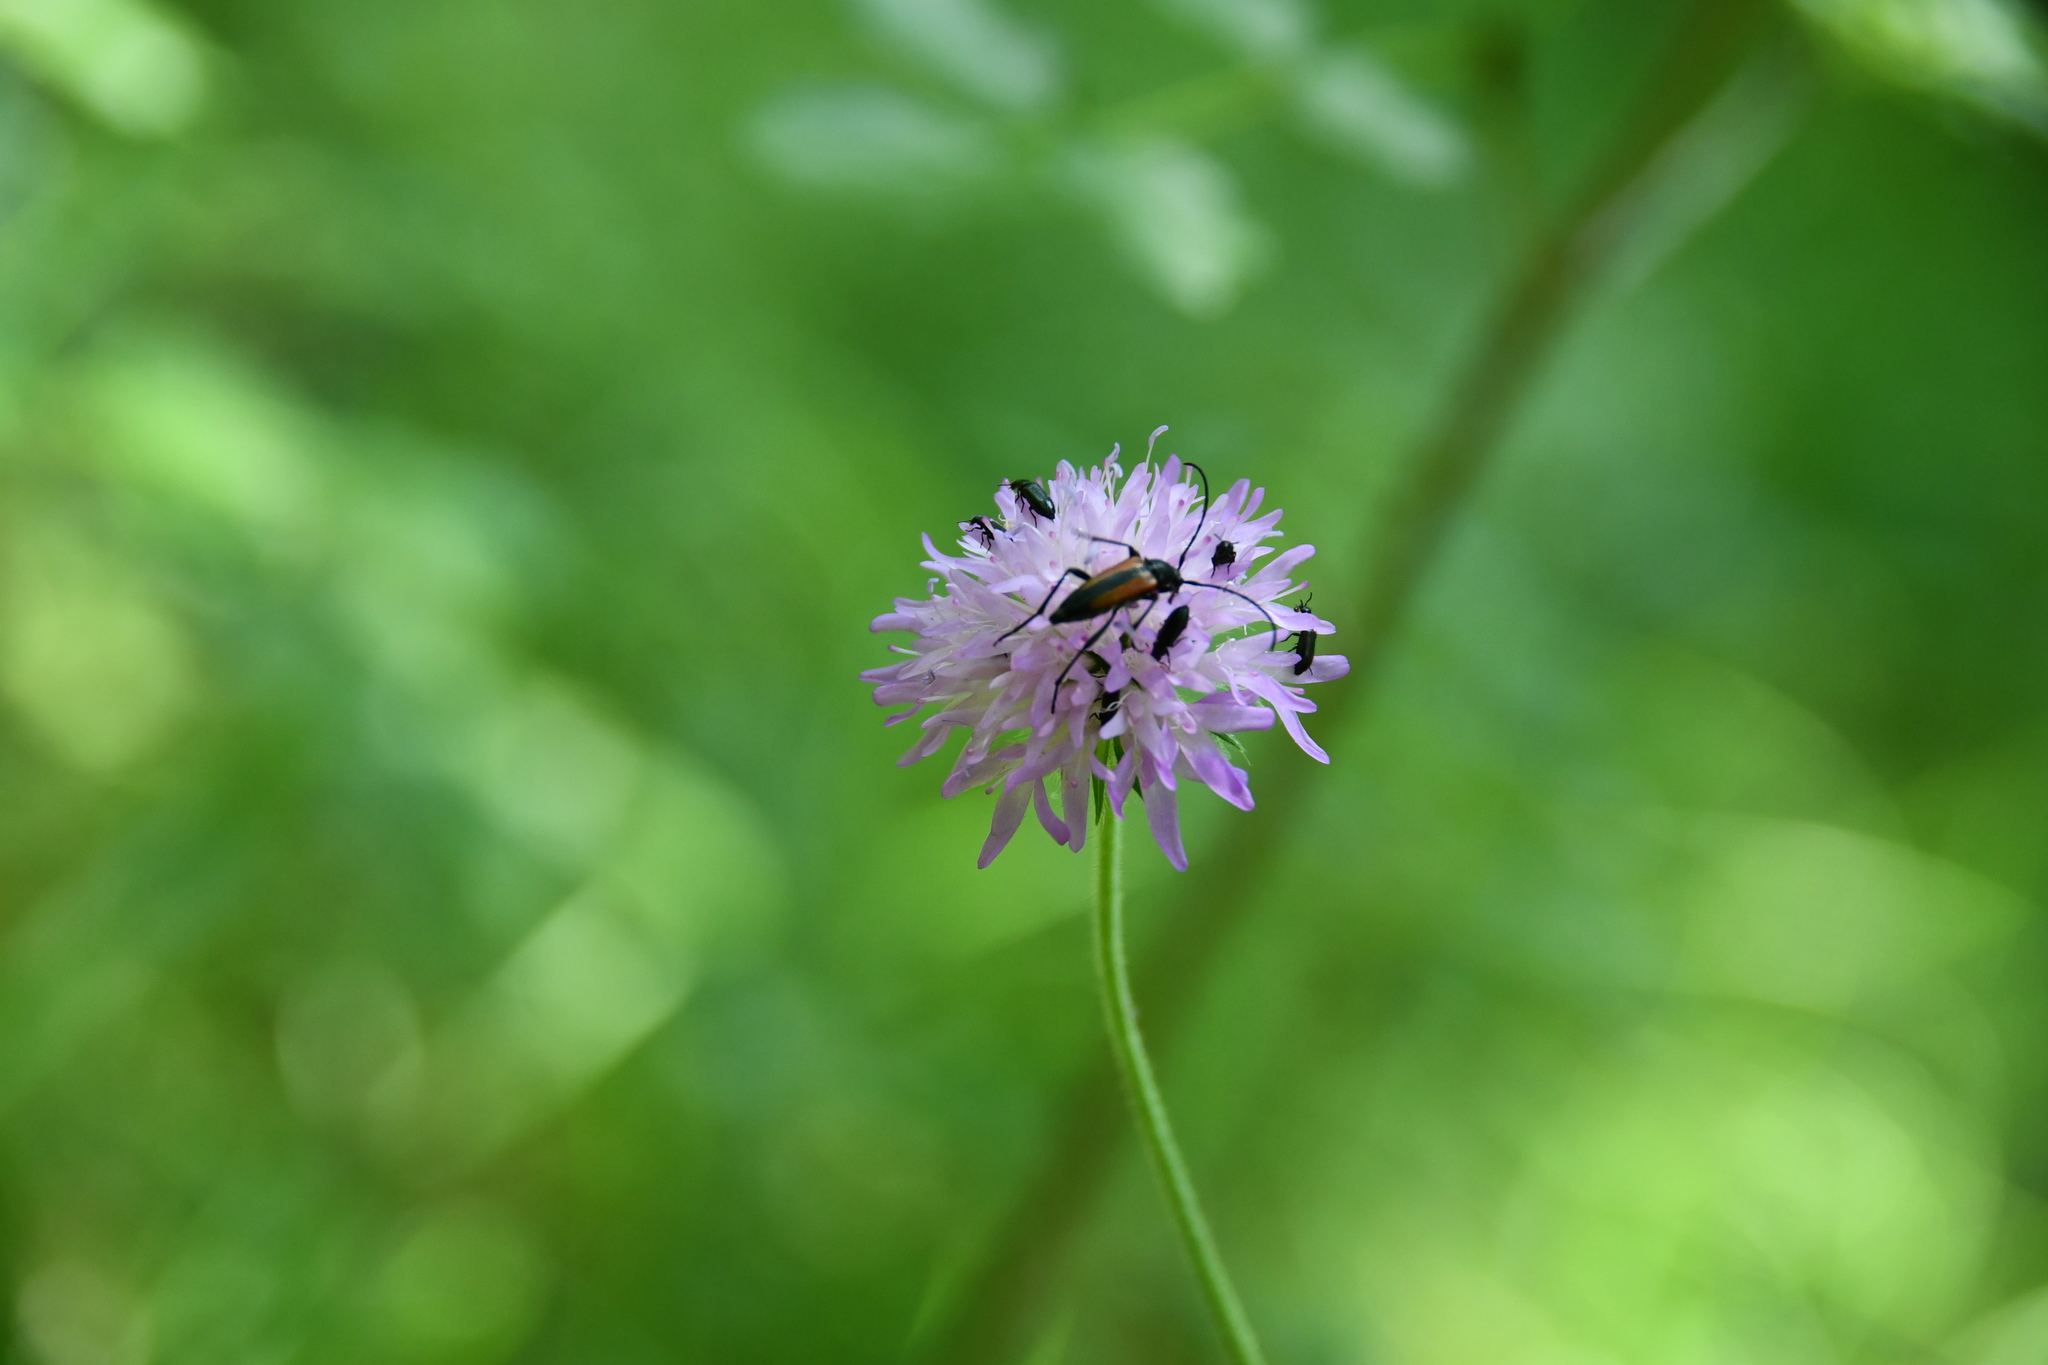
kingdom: Animalia
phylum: Arthropoda
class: Insecta
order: Coleoptera
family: Cerambycidae
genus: Stenurella
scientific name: Stenurella melanura
